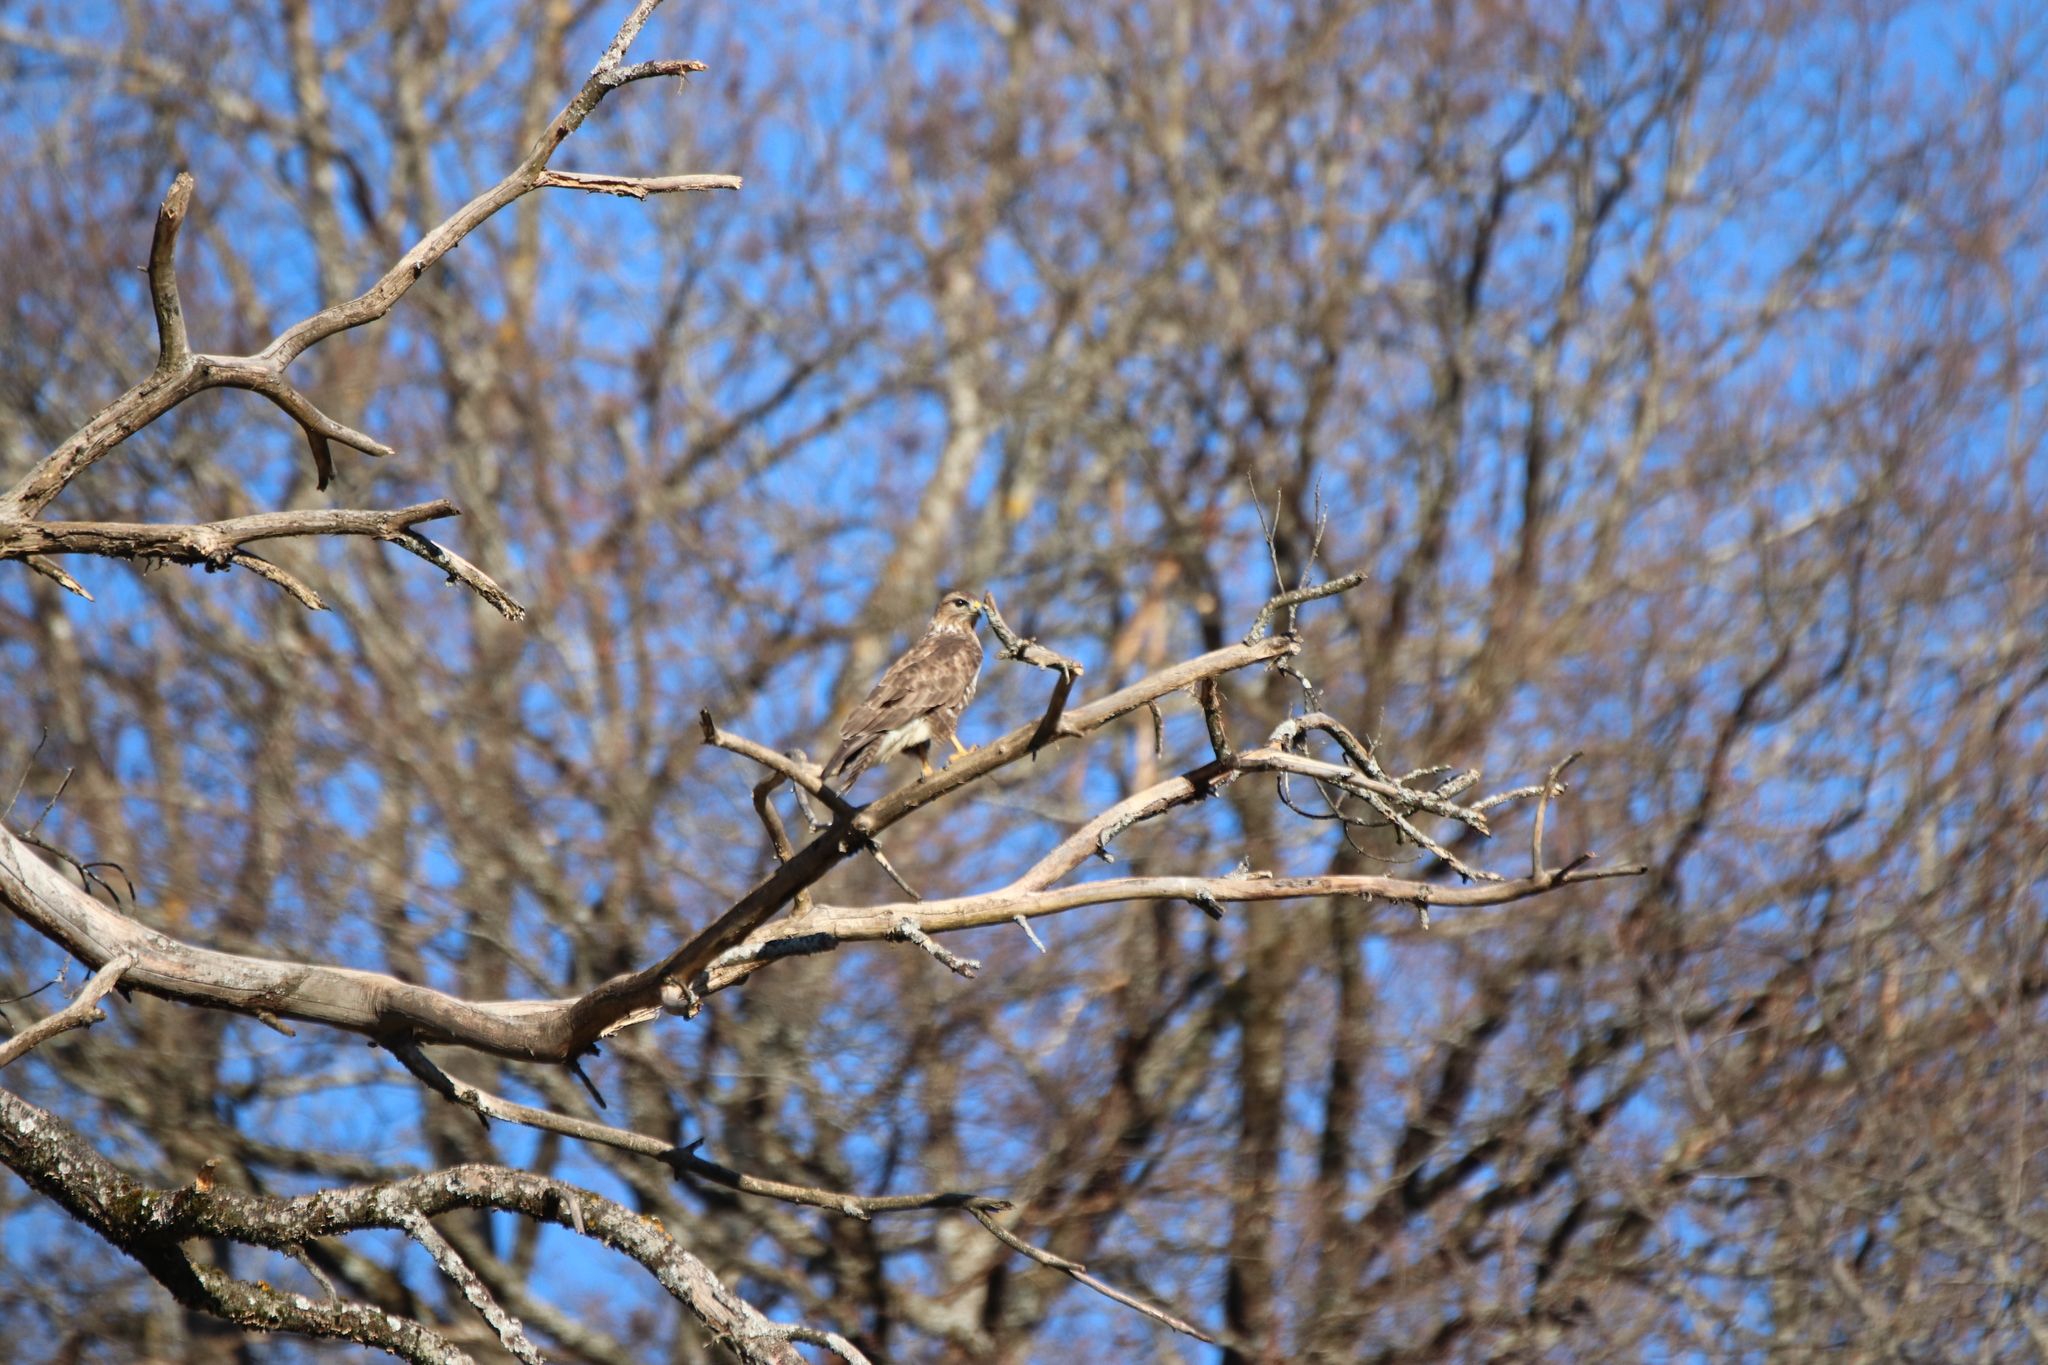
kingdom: Animalia
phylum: Chordata
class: Aves
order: Accipitriformes
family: Accipitridae
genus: Buteo
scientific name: Buteo buteo
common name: Common buzzard
